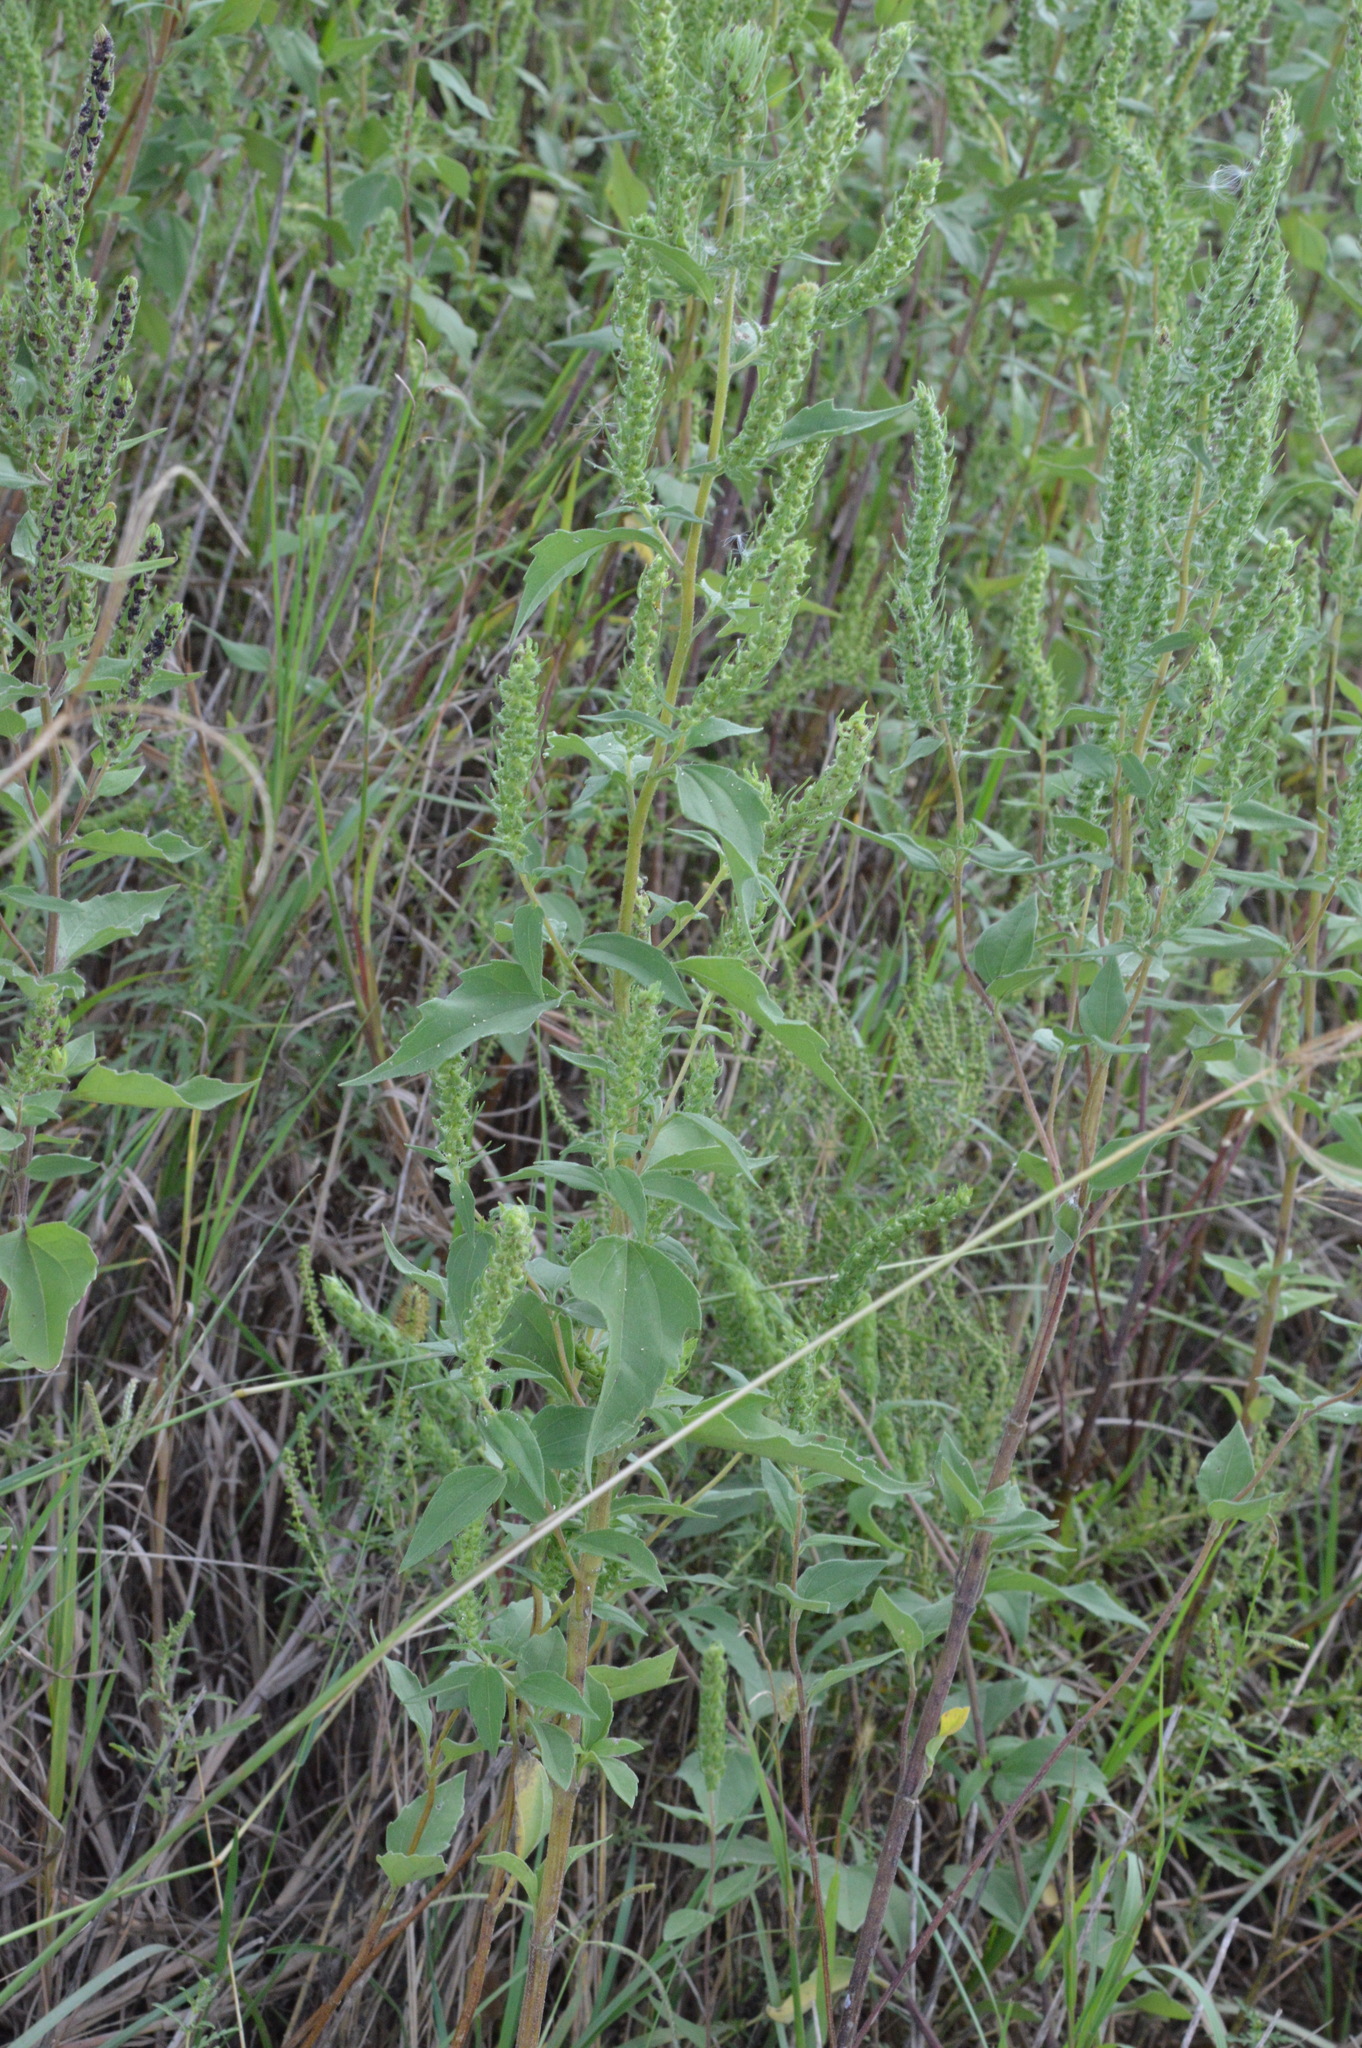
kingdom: Plantae
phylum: Tracheophyta
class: Magnoliopsida
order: Asterales
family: Asteraceae
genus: Iva
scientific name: Iva annua
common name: Marsh-elder
